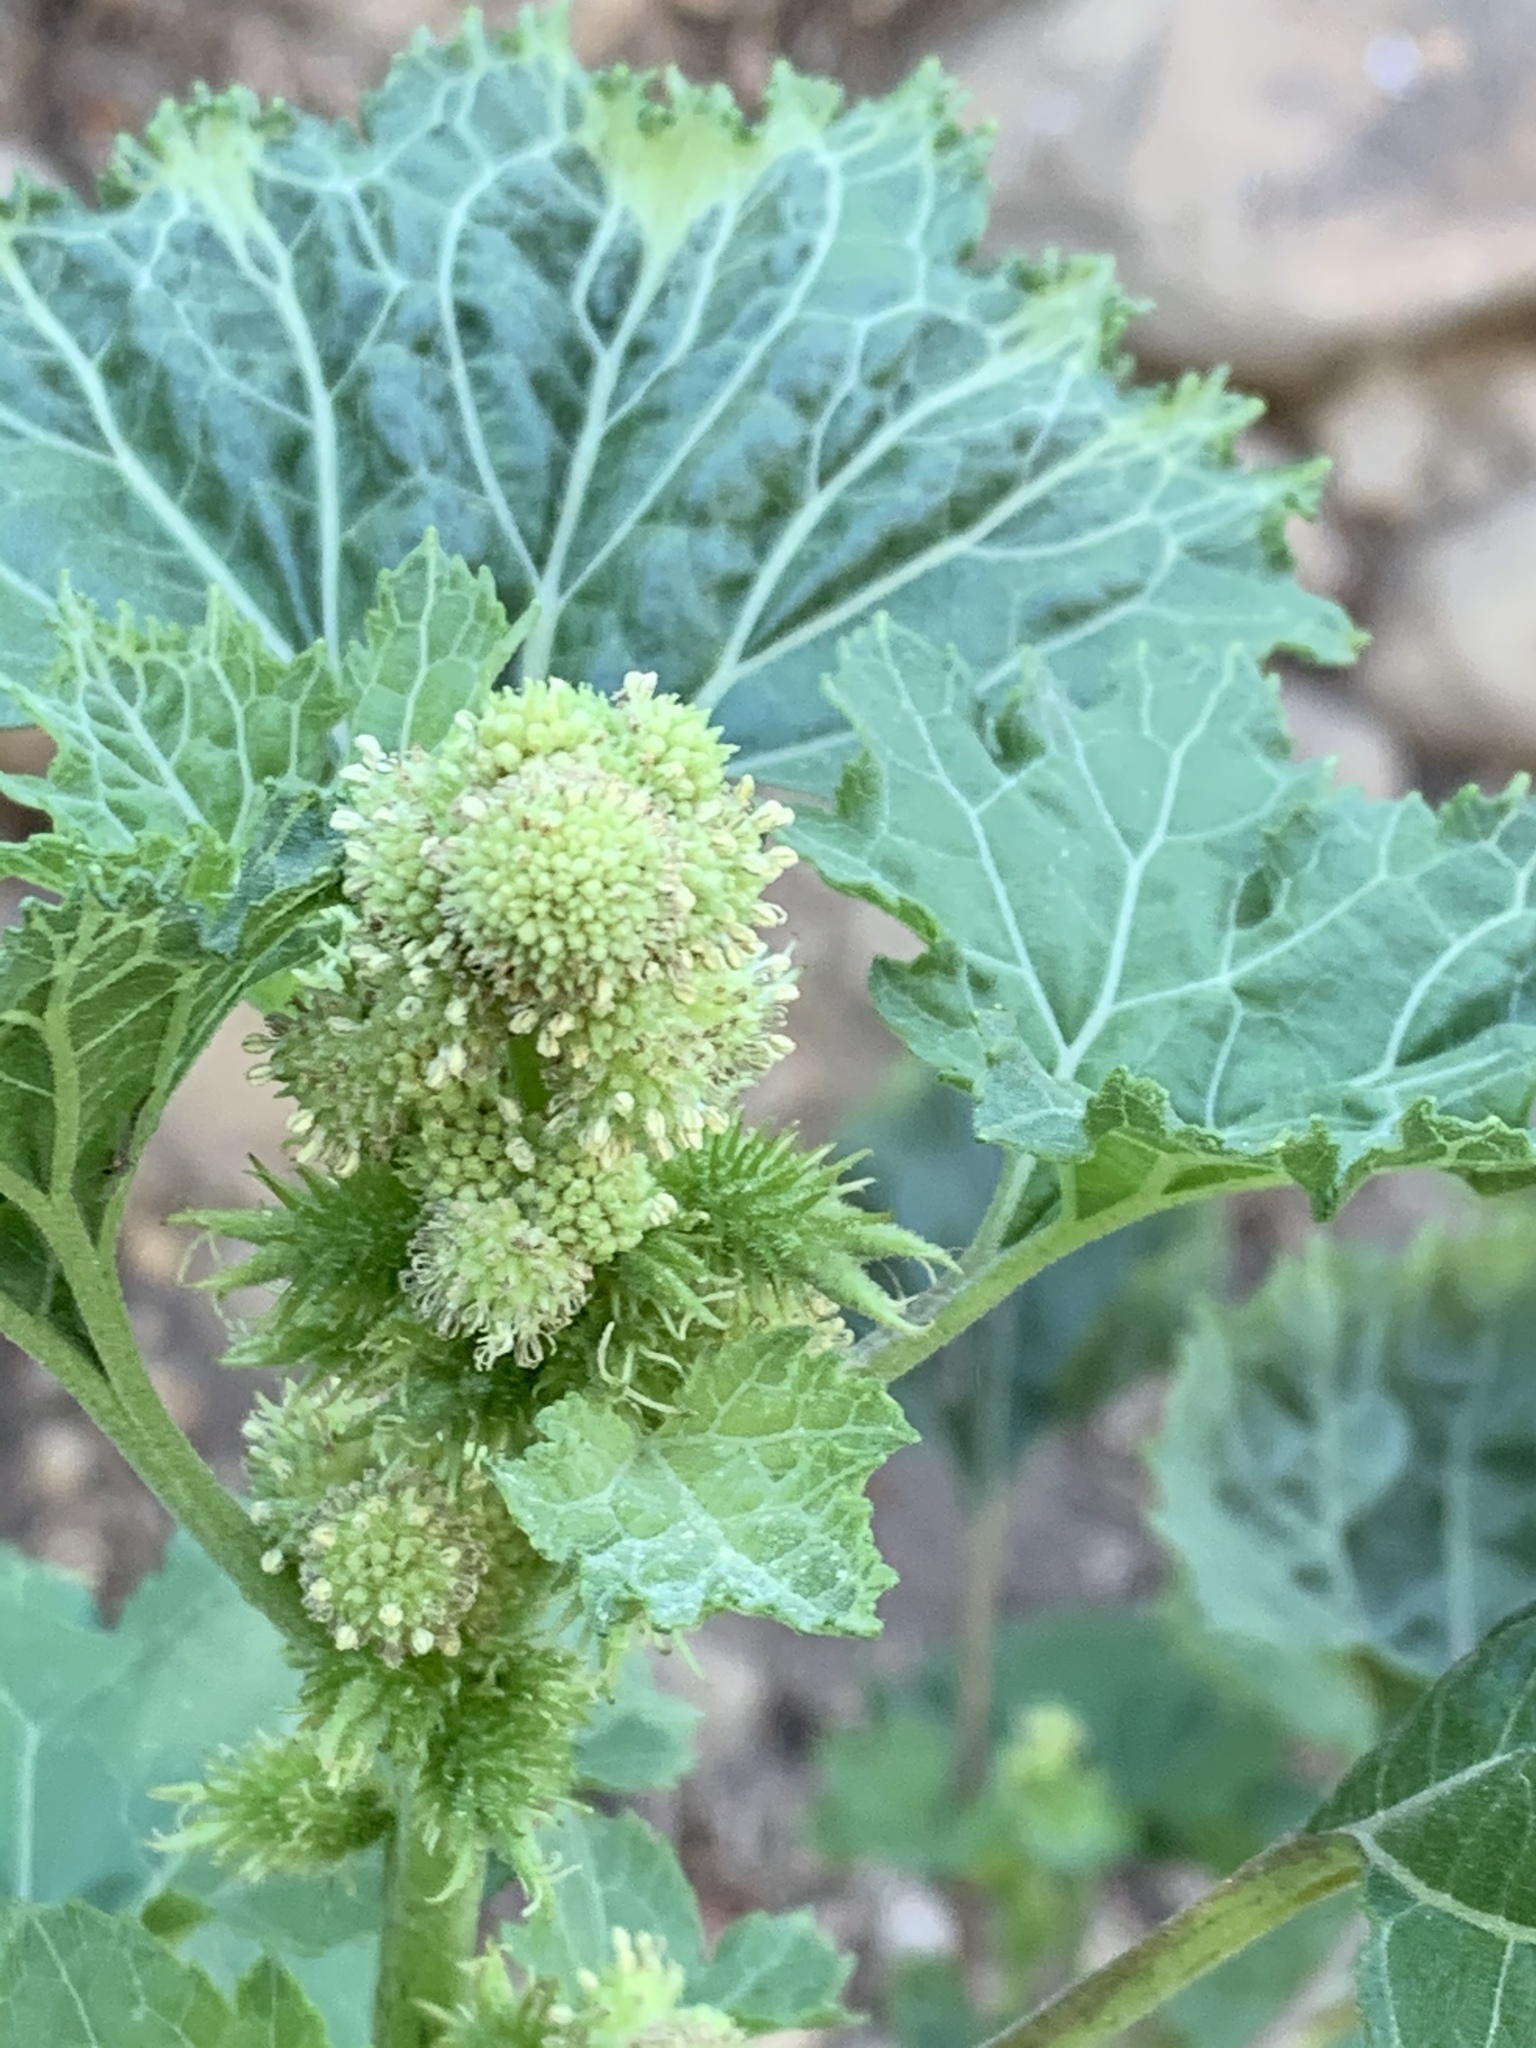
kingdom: Plantae
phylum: Tracheophyta
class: Magnoliopsida
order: Asterales
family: Asteraceae
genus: Xanthium
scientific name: Xanthium strumarium
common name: Rough cocklebur
